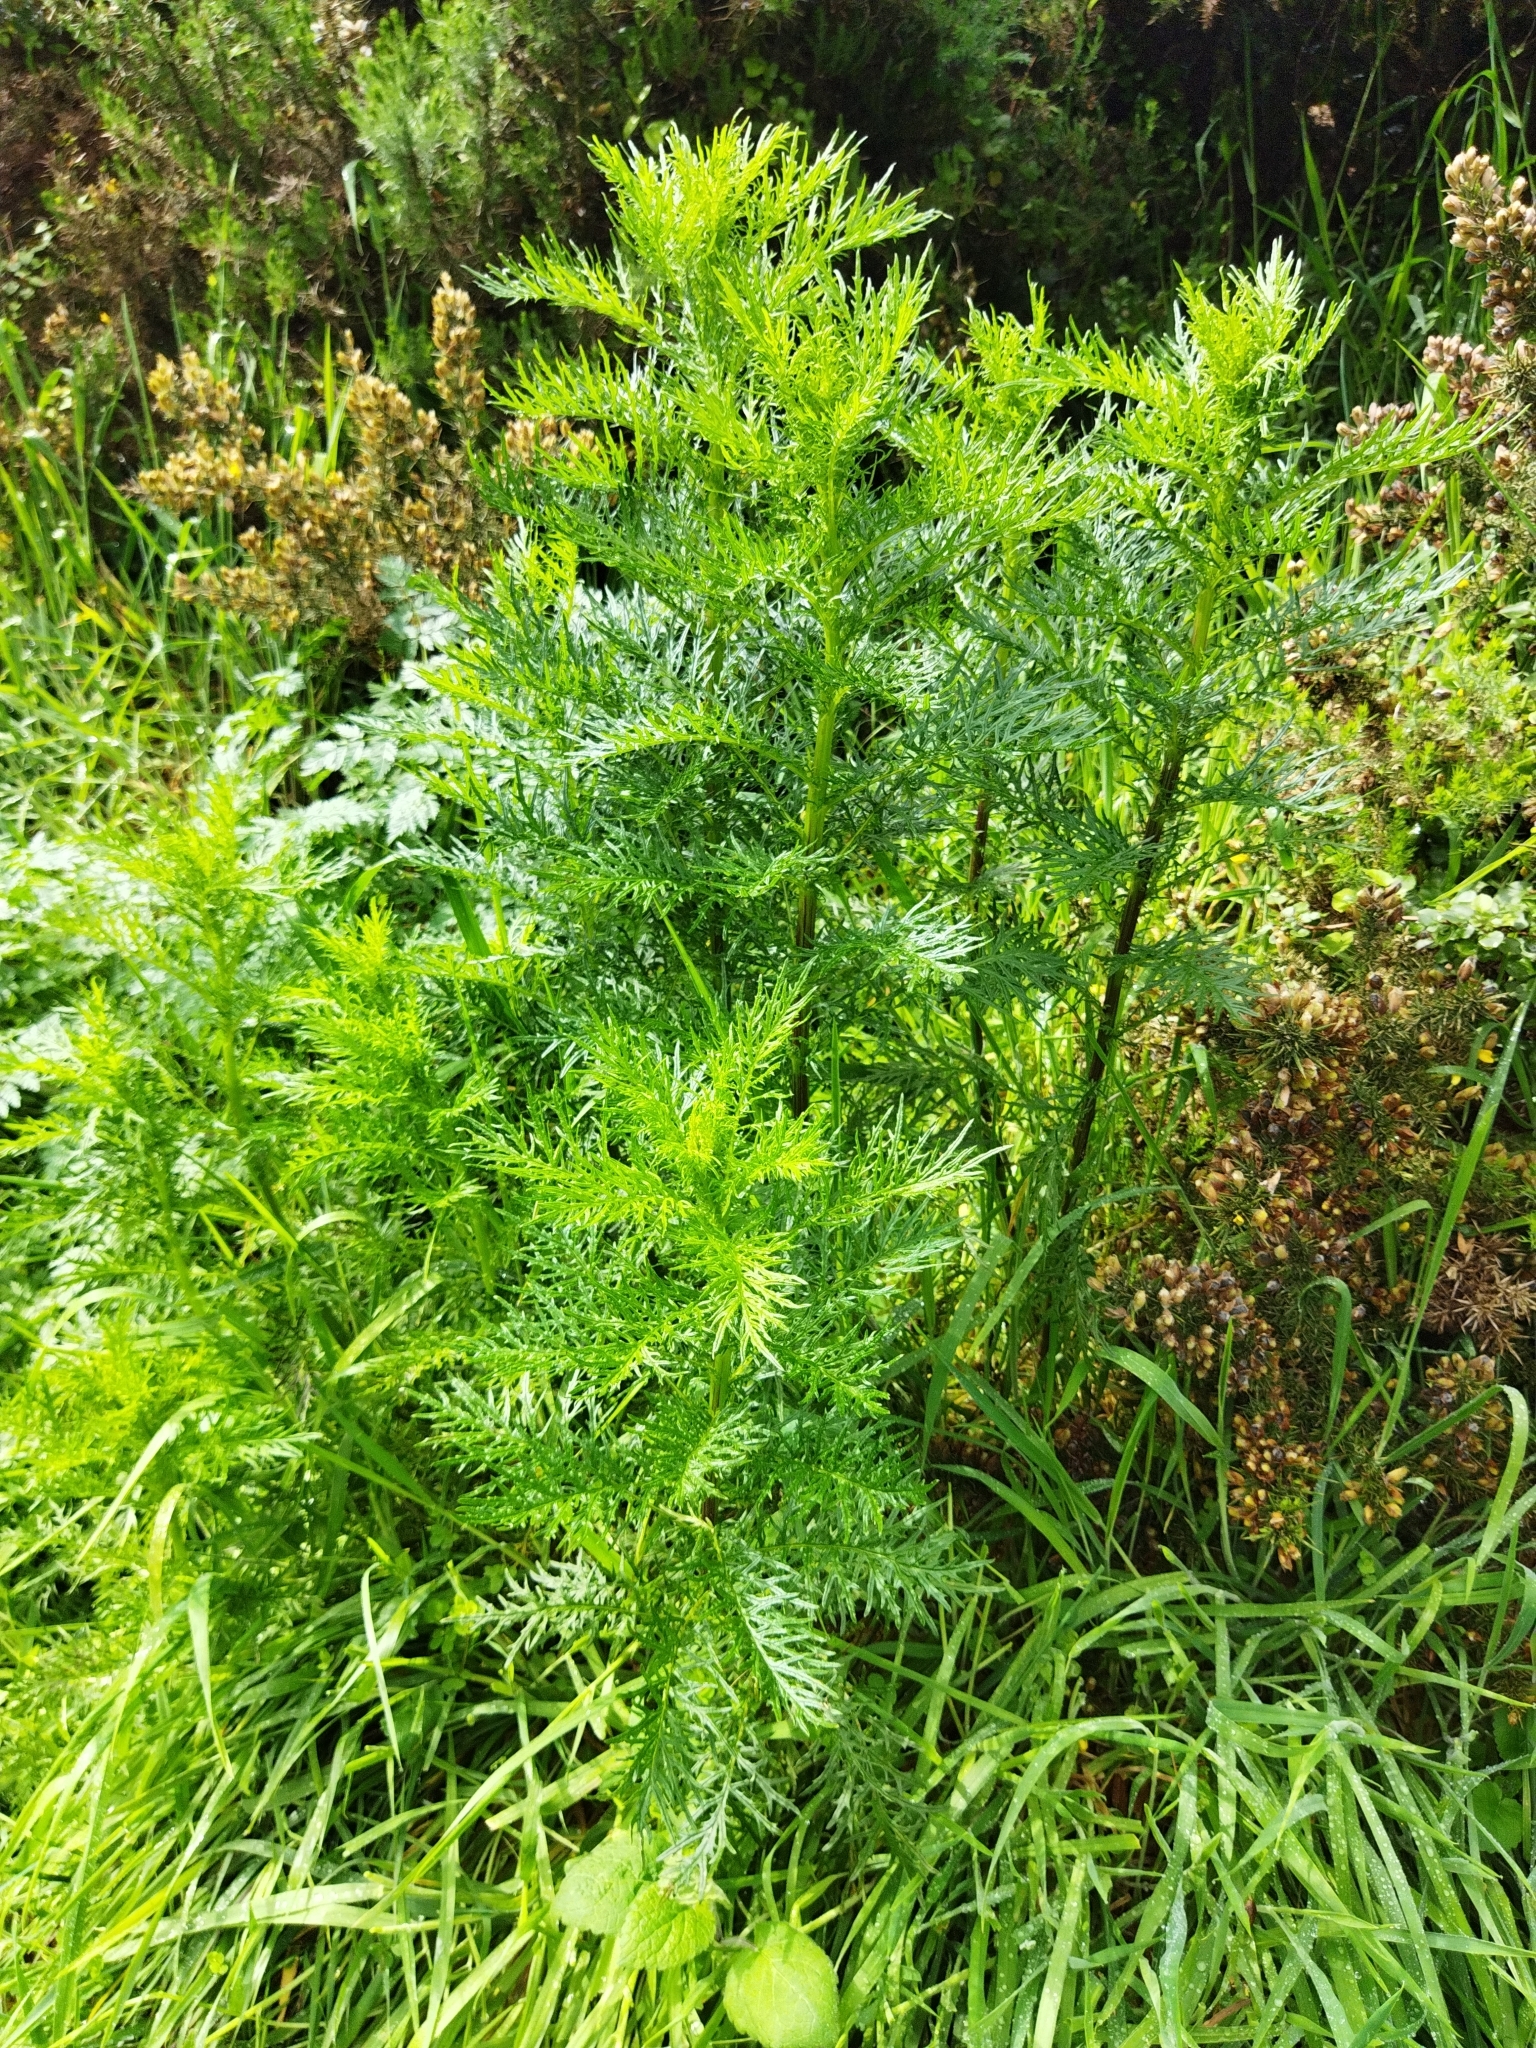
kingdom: Plantae
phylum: Tracheophyta
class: Magnoliopsida
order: Asterales
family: Asteraceae
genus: Senecio
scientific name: Senecio bipinnatisectus
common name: Australian fireweed
